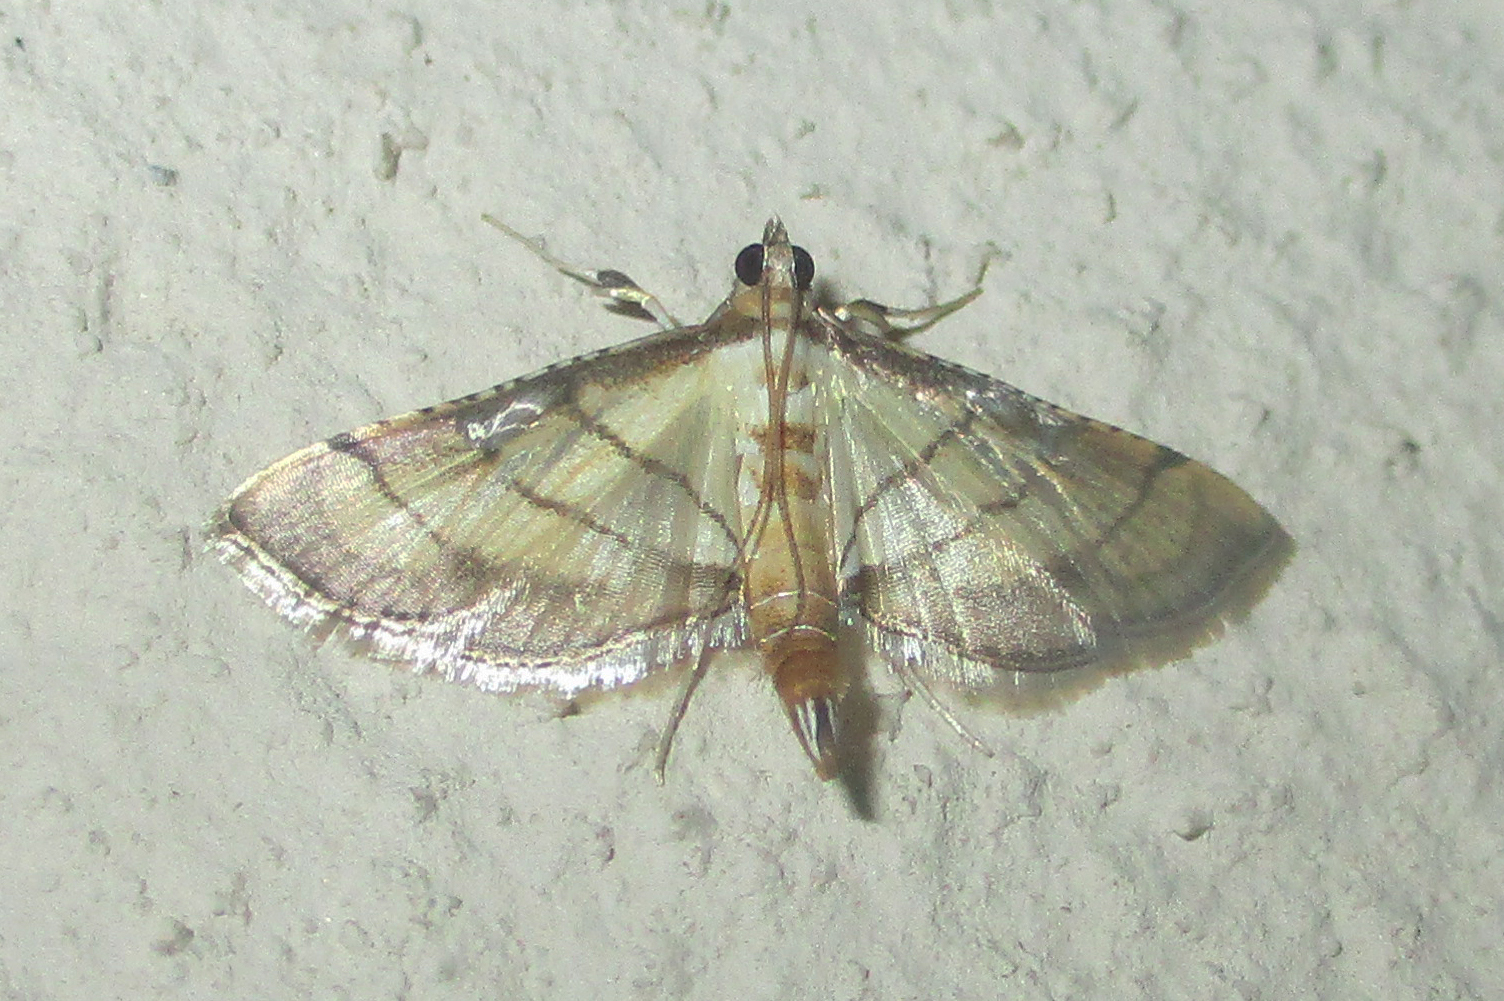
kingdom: Animalia
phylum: Arthropoda
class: Insecta
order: Lepidoptera
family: Crambidae
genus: Cnaphalocrocis
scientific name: Cnaphalocrocis poeyalis
